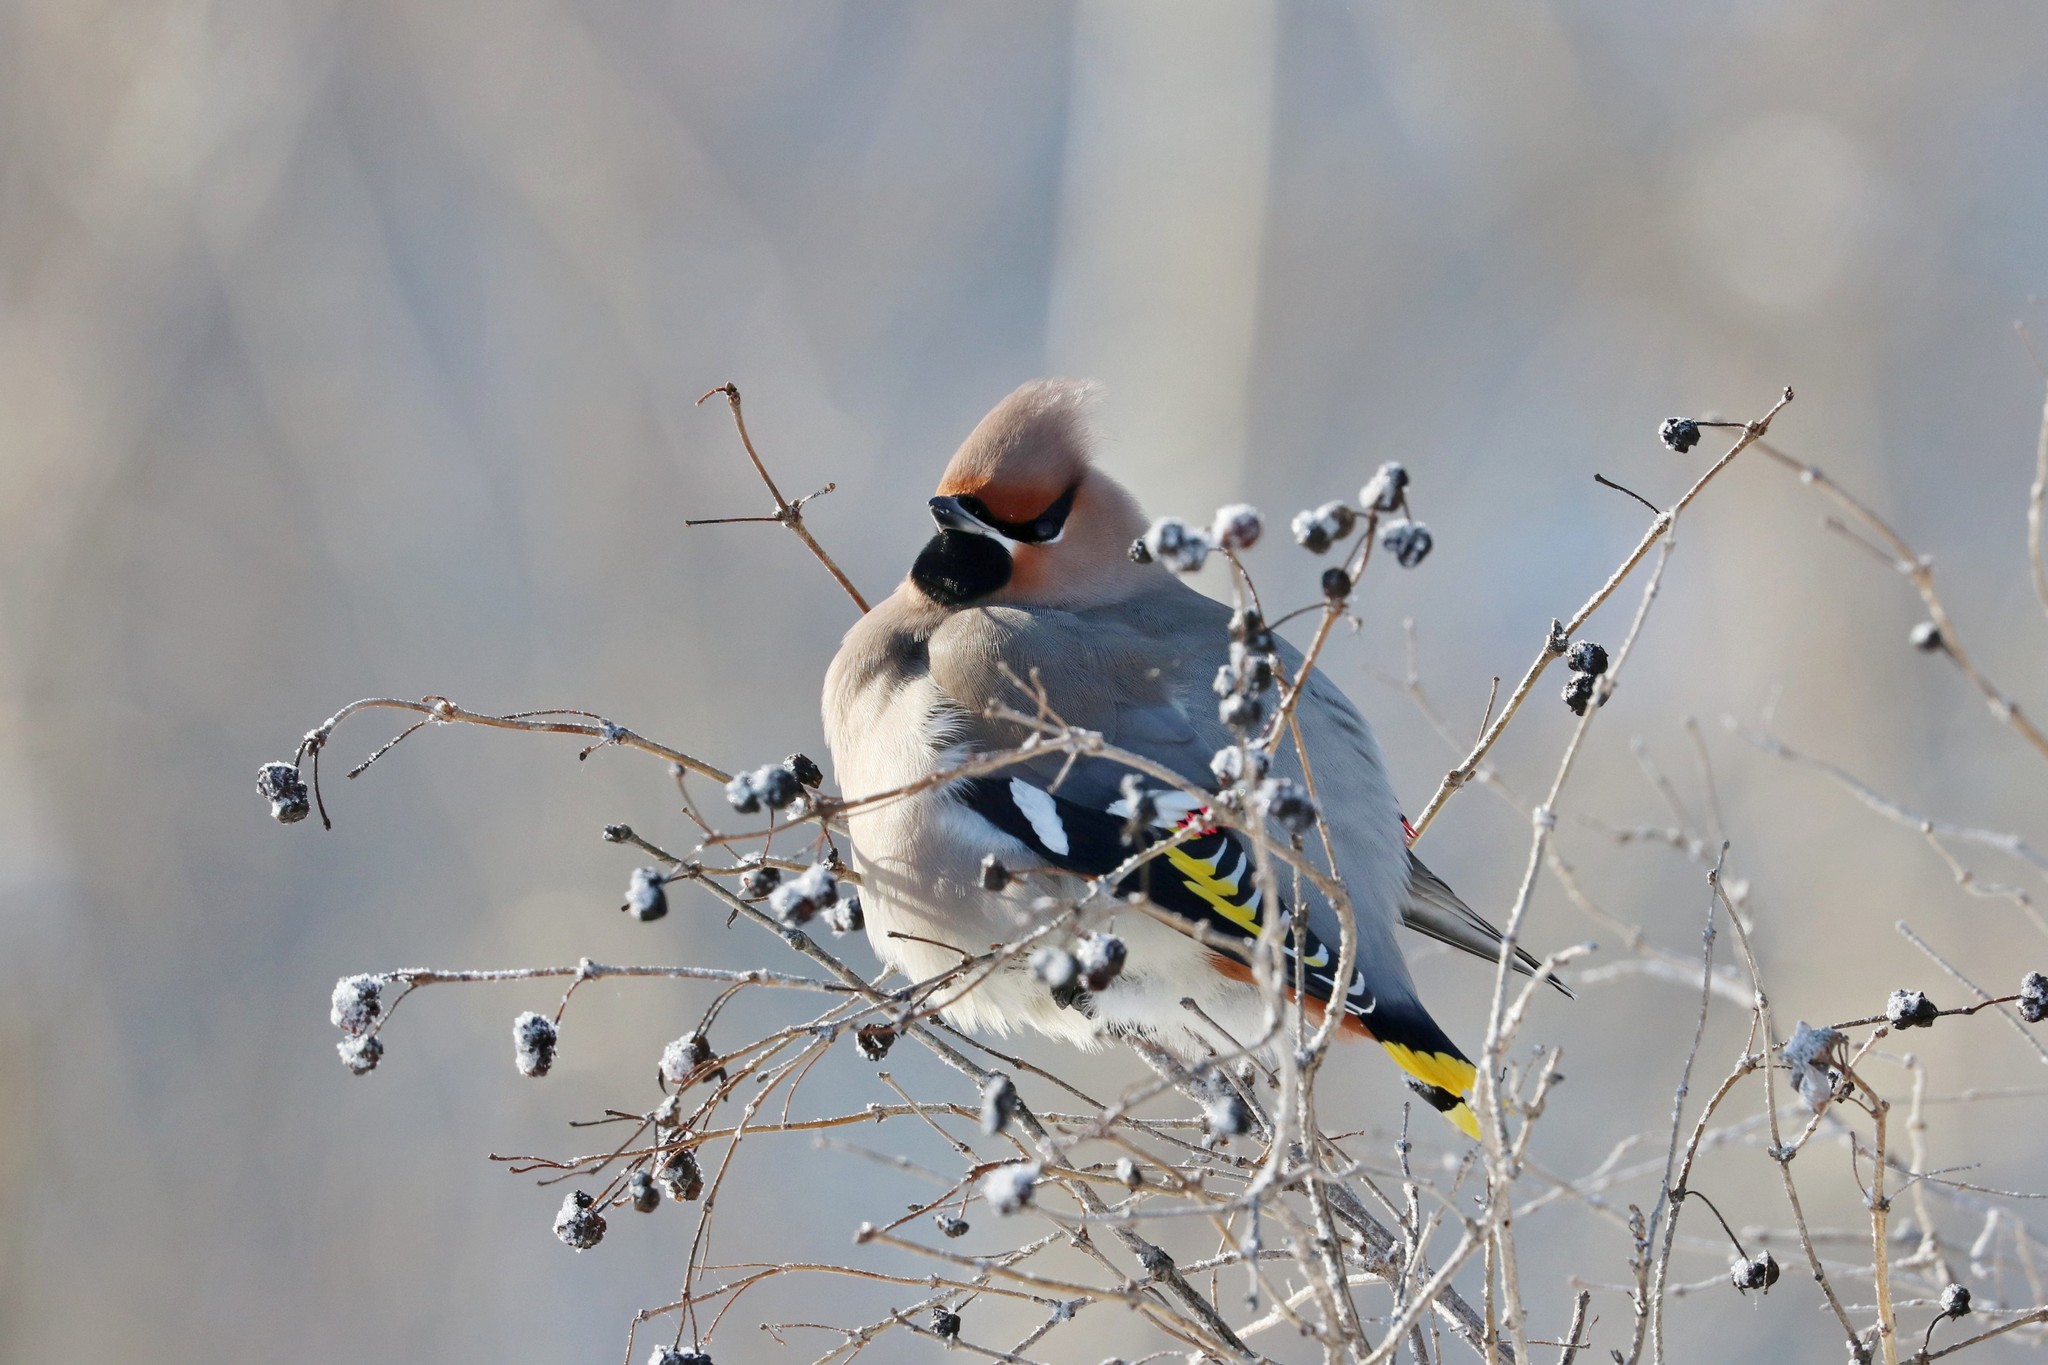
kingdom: Animalia
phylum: Chordata
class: Aves
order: Passeriformes
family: Bombycillidae
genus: Bombycilla
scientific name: Bombycilla garrulus
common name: Bohemian waxwing
